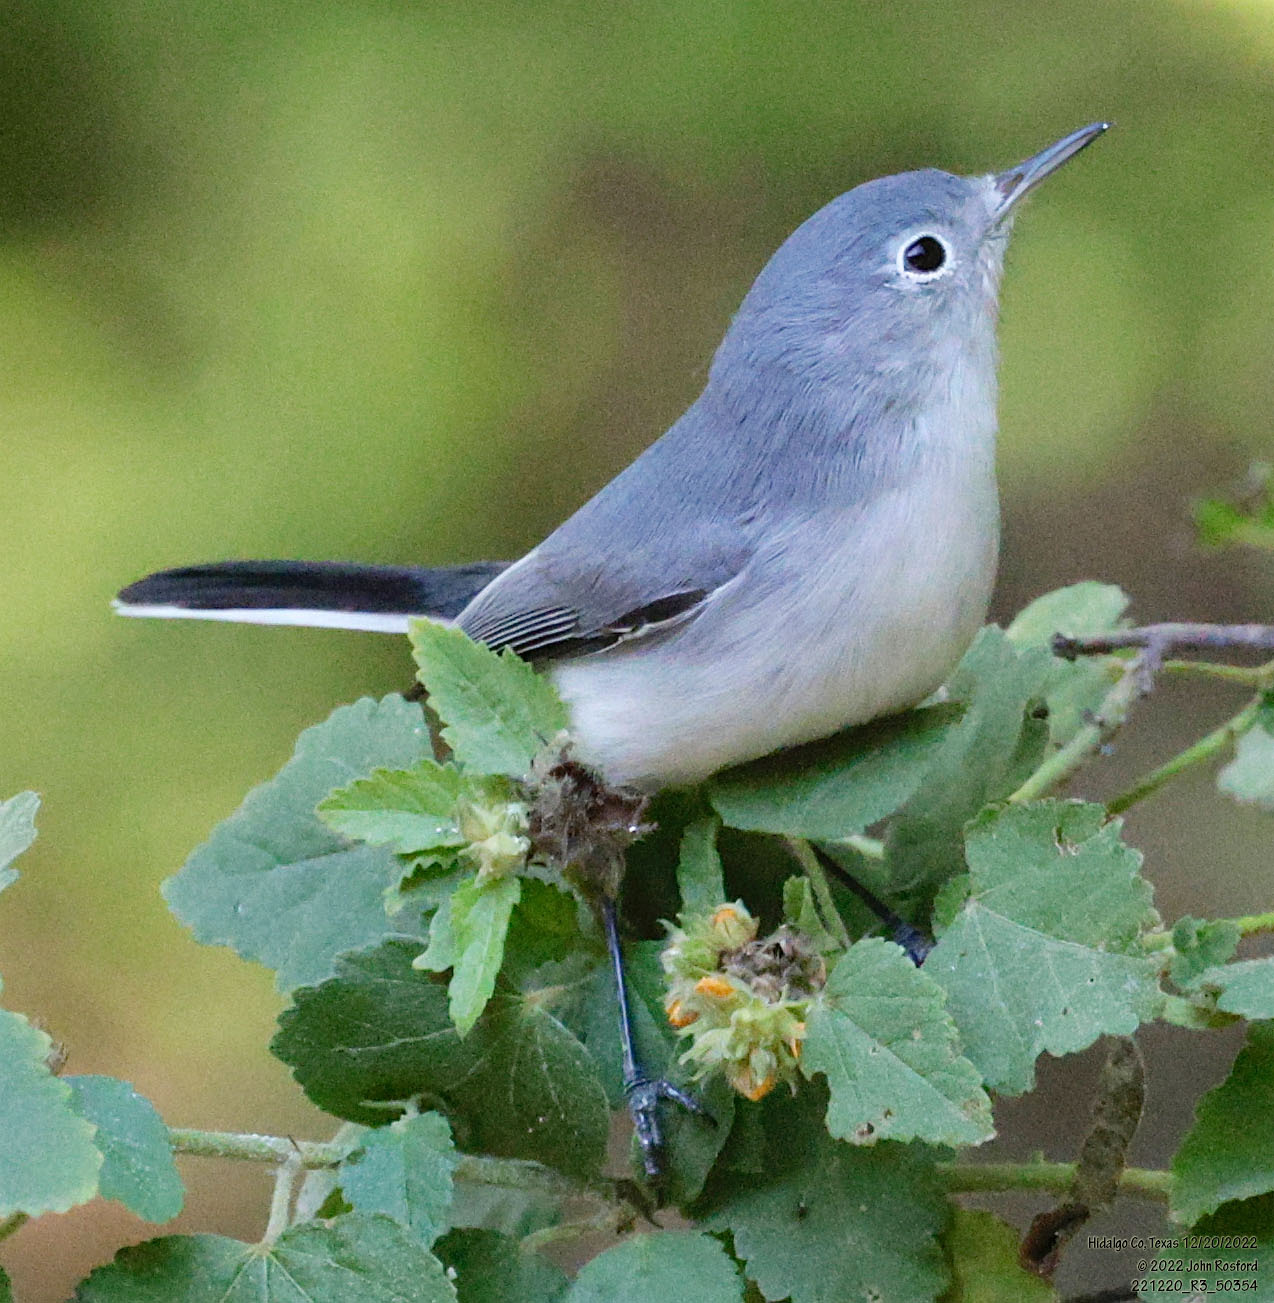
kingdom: Animalia
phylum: Chordata
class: Aves
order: Passeriformes
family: Polioptilidae
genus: Polioptila
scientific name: Polioptila caerulea
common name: Blue-gray gnatcatcher
